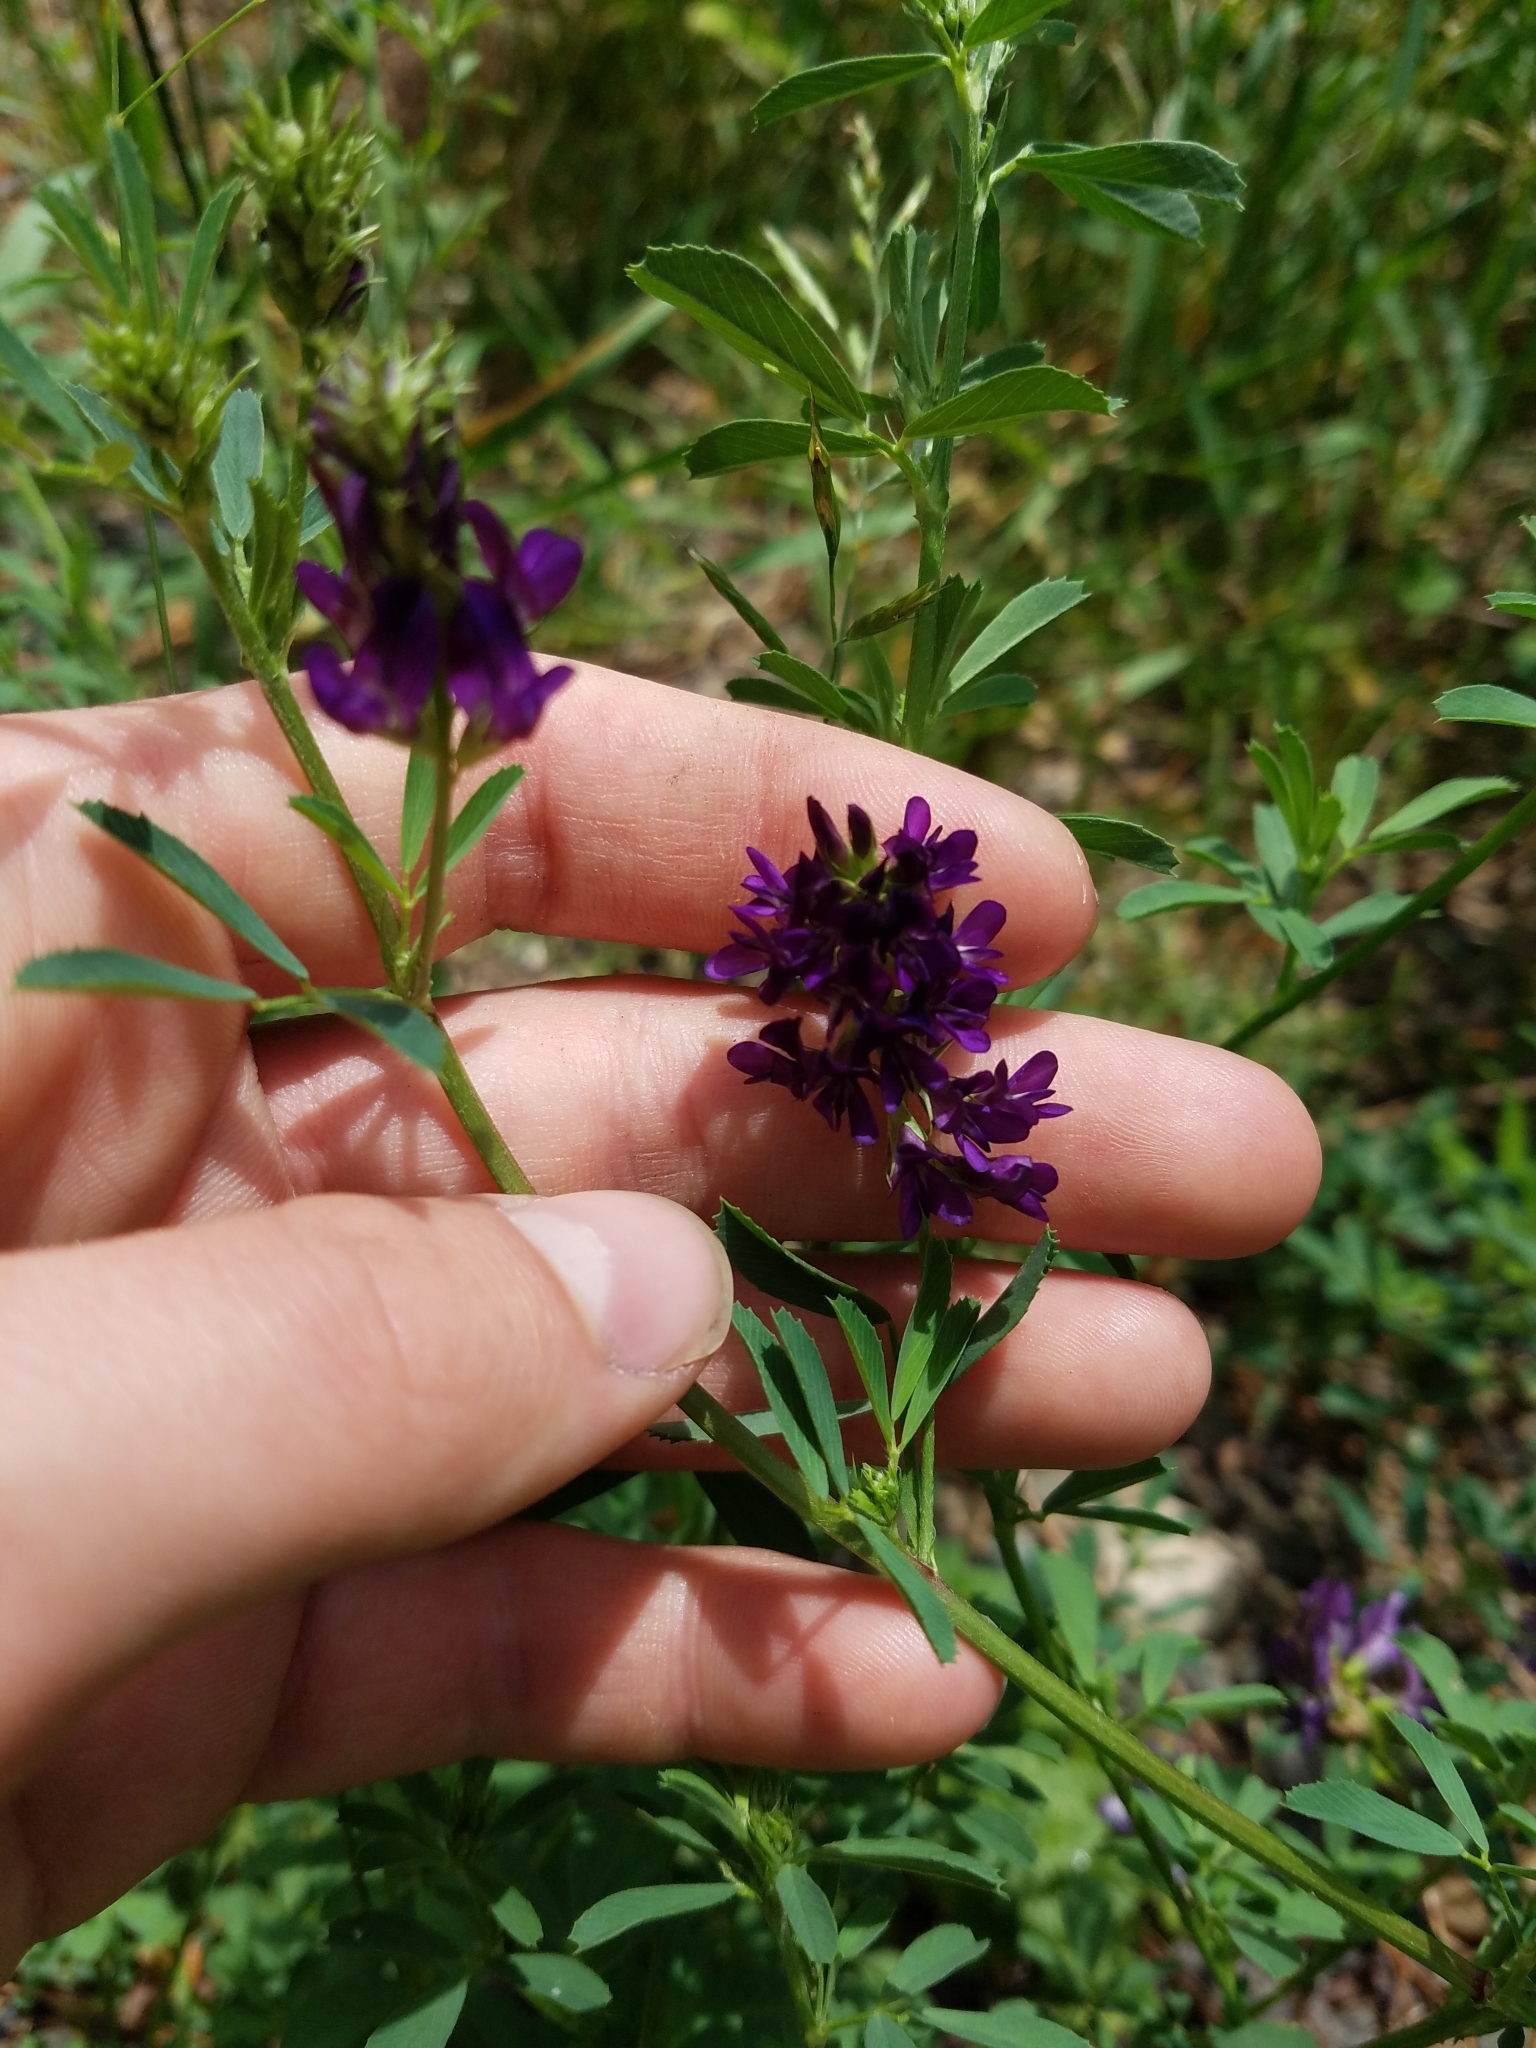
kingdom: Plantae
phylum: Tracheophyta
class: Magnoliopsida
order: Fabales
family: Fabaceae
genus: Medicago
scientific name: Medicago sativa
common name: Alfalfa
